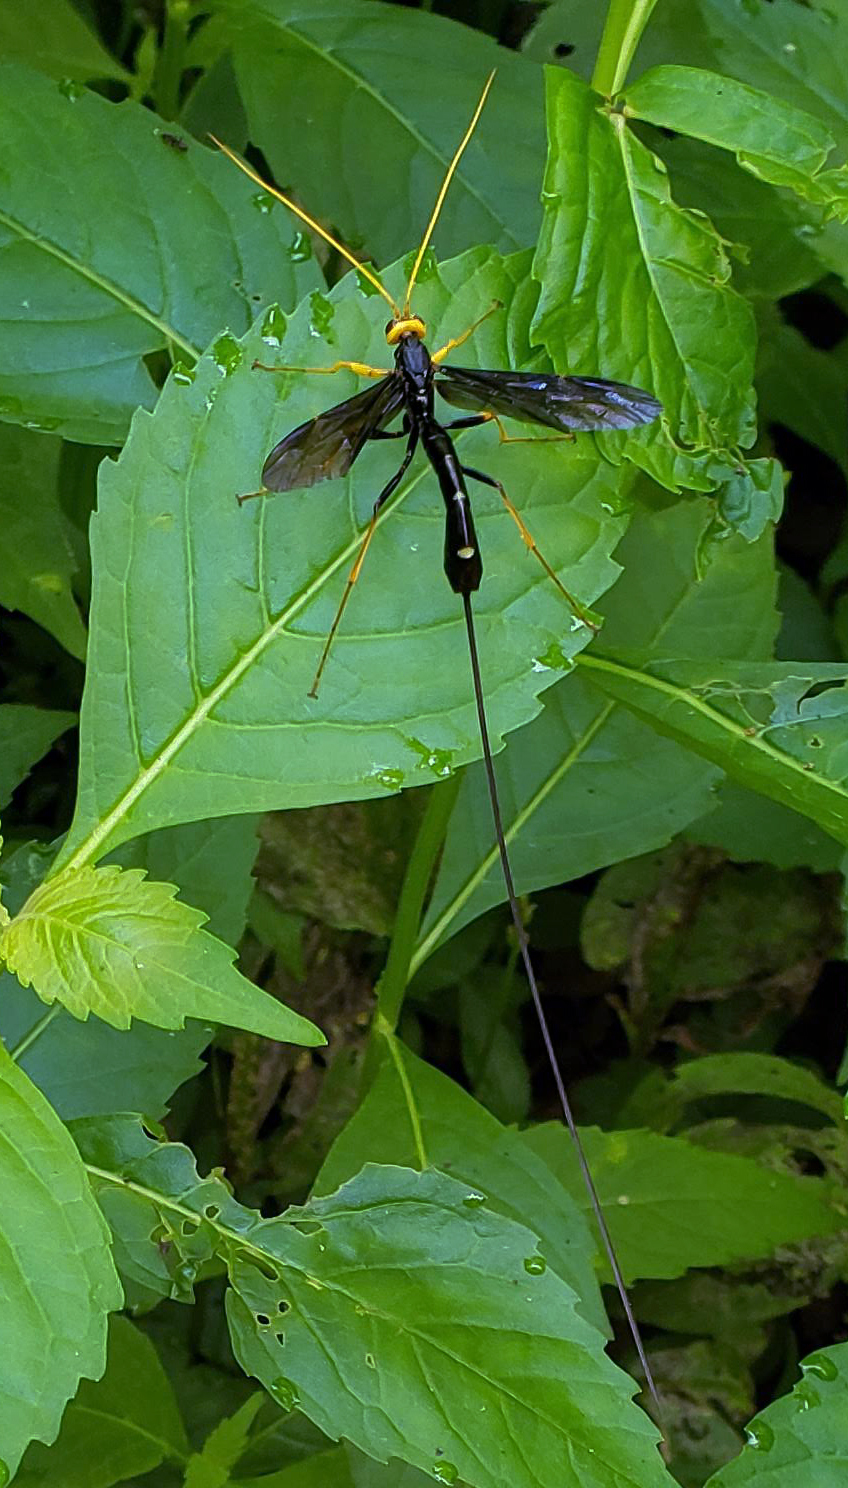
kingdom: Animalia
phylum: Arthropoda
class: Insecta
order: Hymenoptera
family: Ichneumonidae
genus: Megarhyssa
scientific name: Megarhyssa atrata
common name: Black giant ichneumonid wasp
